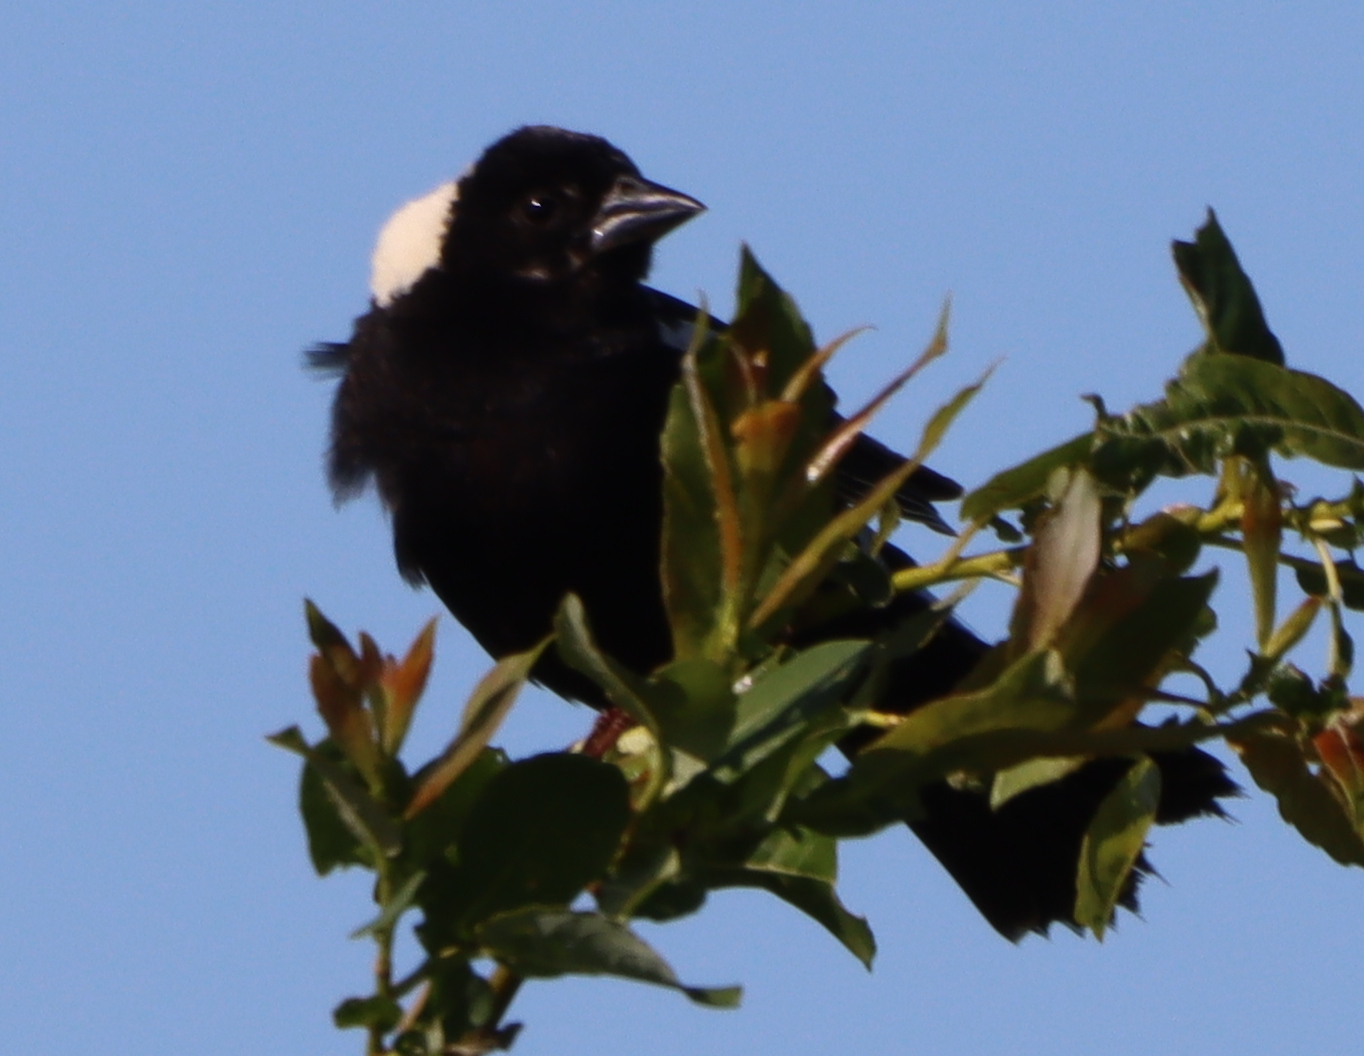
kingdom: Animalia
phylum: Chordata
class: Aves
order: Passeriformes
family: Icteridae
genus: Dolichonyx
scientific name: Dolichonyx oryzivorus
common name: Bobolink
